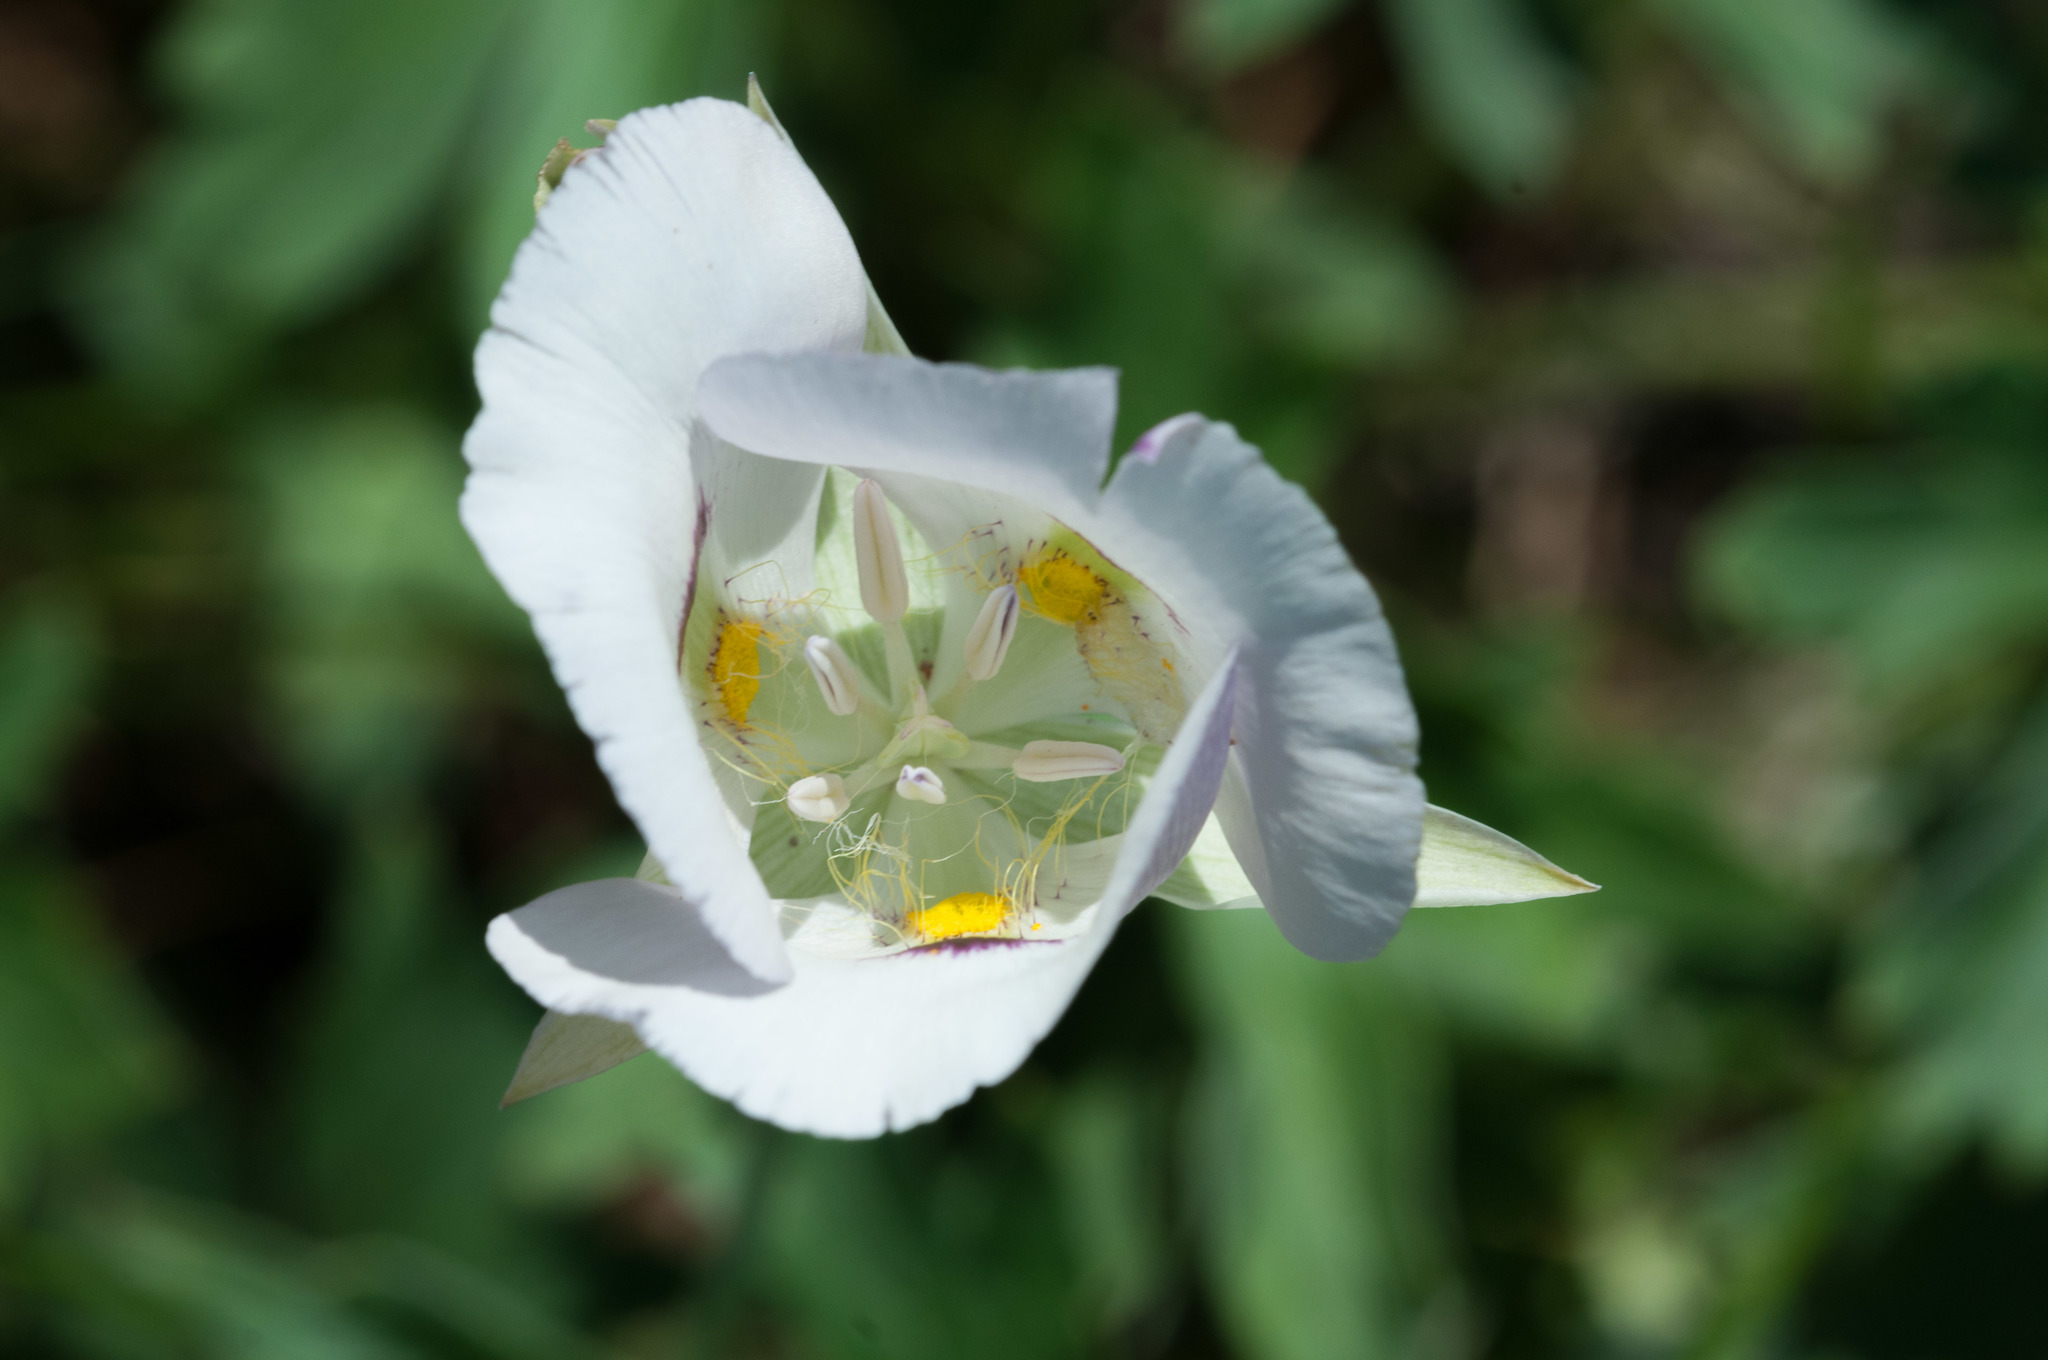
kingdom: Plantae
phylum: Tracheophyta
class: Liliopsida
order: Liliales
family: Liliaceae
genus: Calochortus
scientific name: Calochortus eurycarpus
